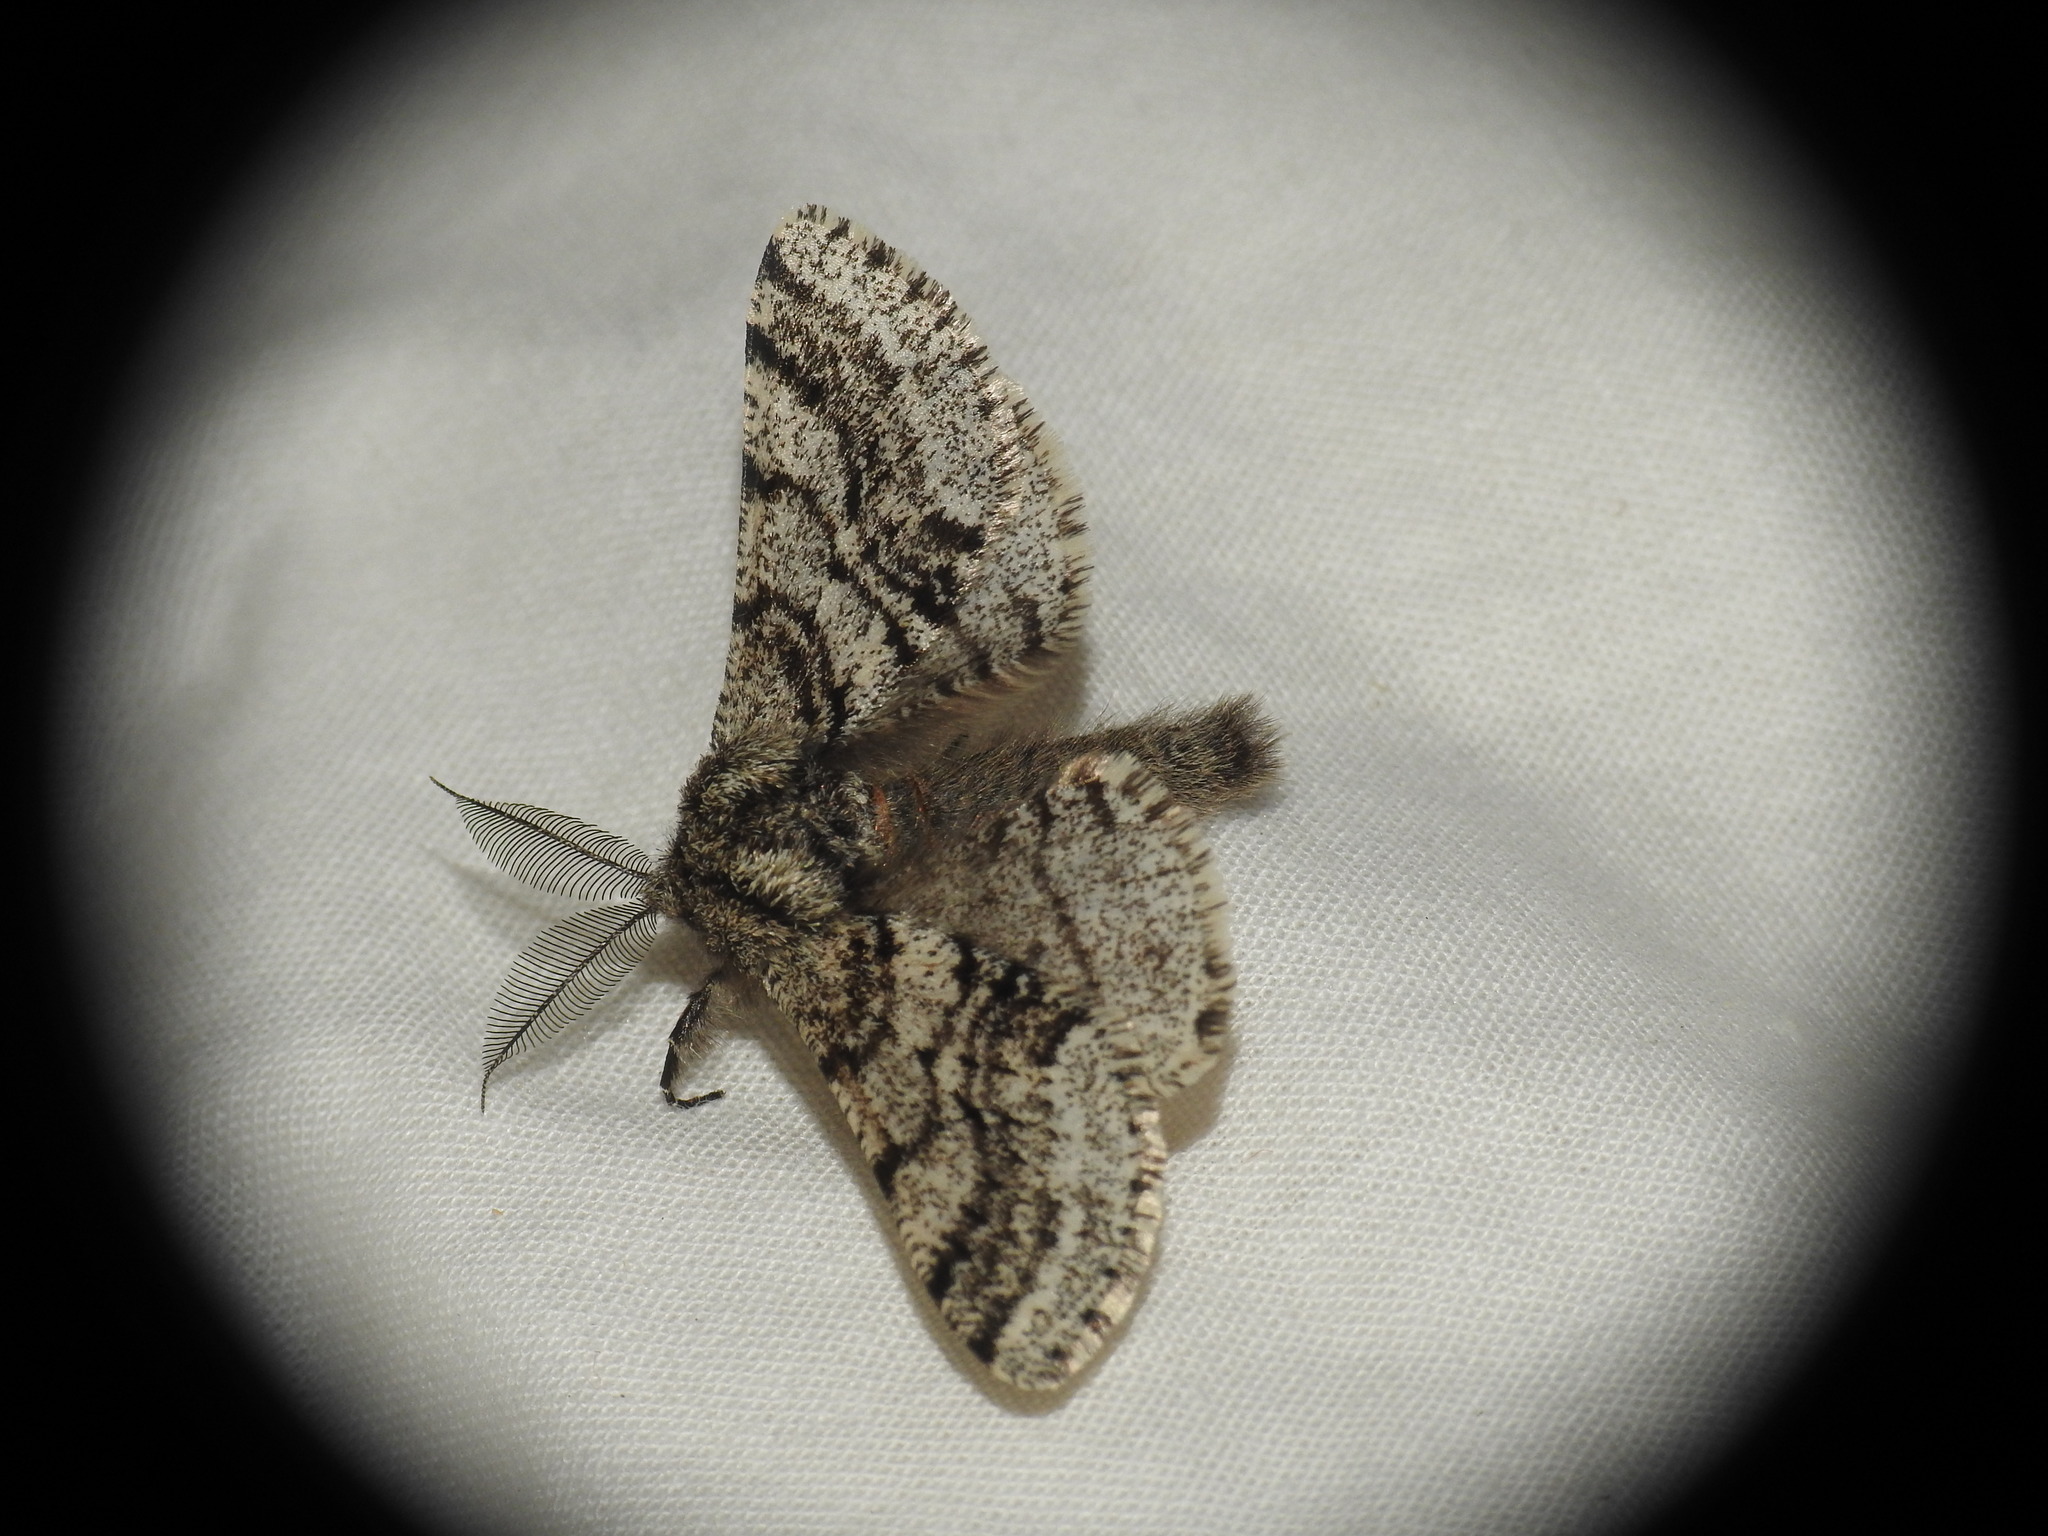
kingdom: Animalia
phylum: Arthropoda
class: Insecta
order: Lepidoptera
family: Geometridae
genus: Lycia
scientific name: Lycia hirtaria
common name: Brindled beauty
